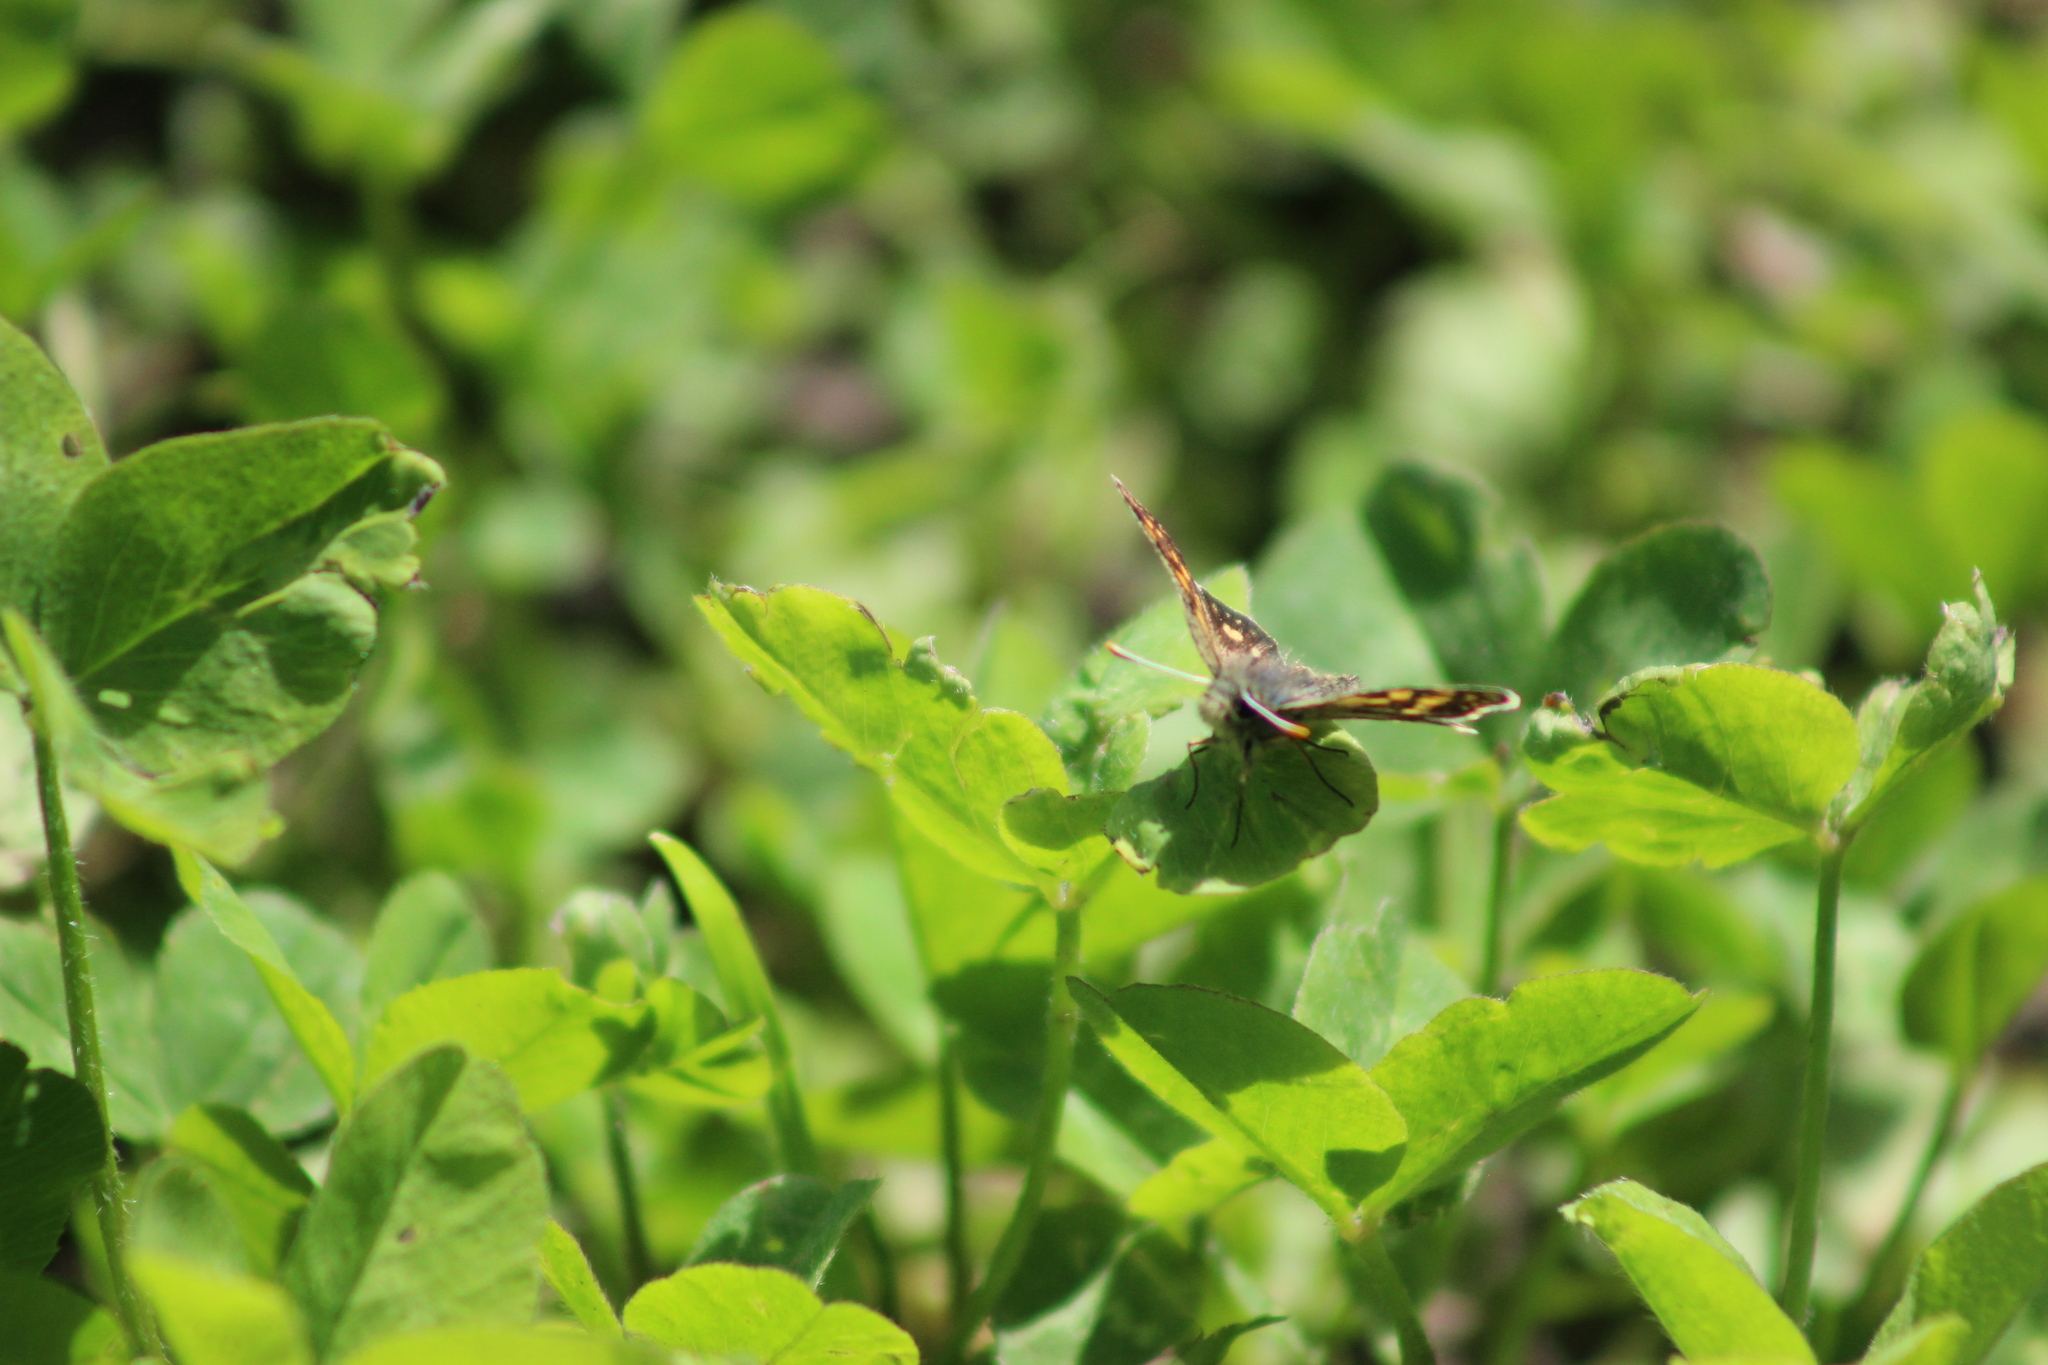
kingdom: Animalia
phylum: Arthropoda
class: Insecta
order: Lepidoptera
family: Hesperiidae
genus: Carterocephalus
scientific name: Carterocephalus palaemon
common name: Chequered skipper
